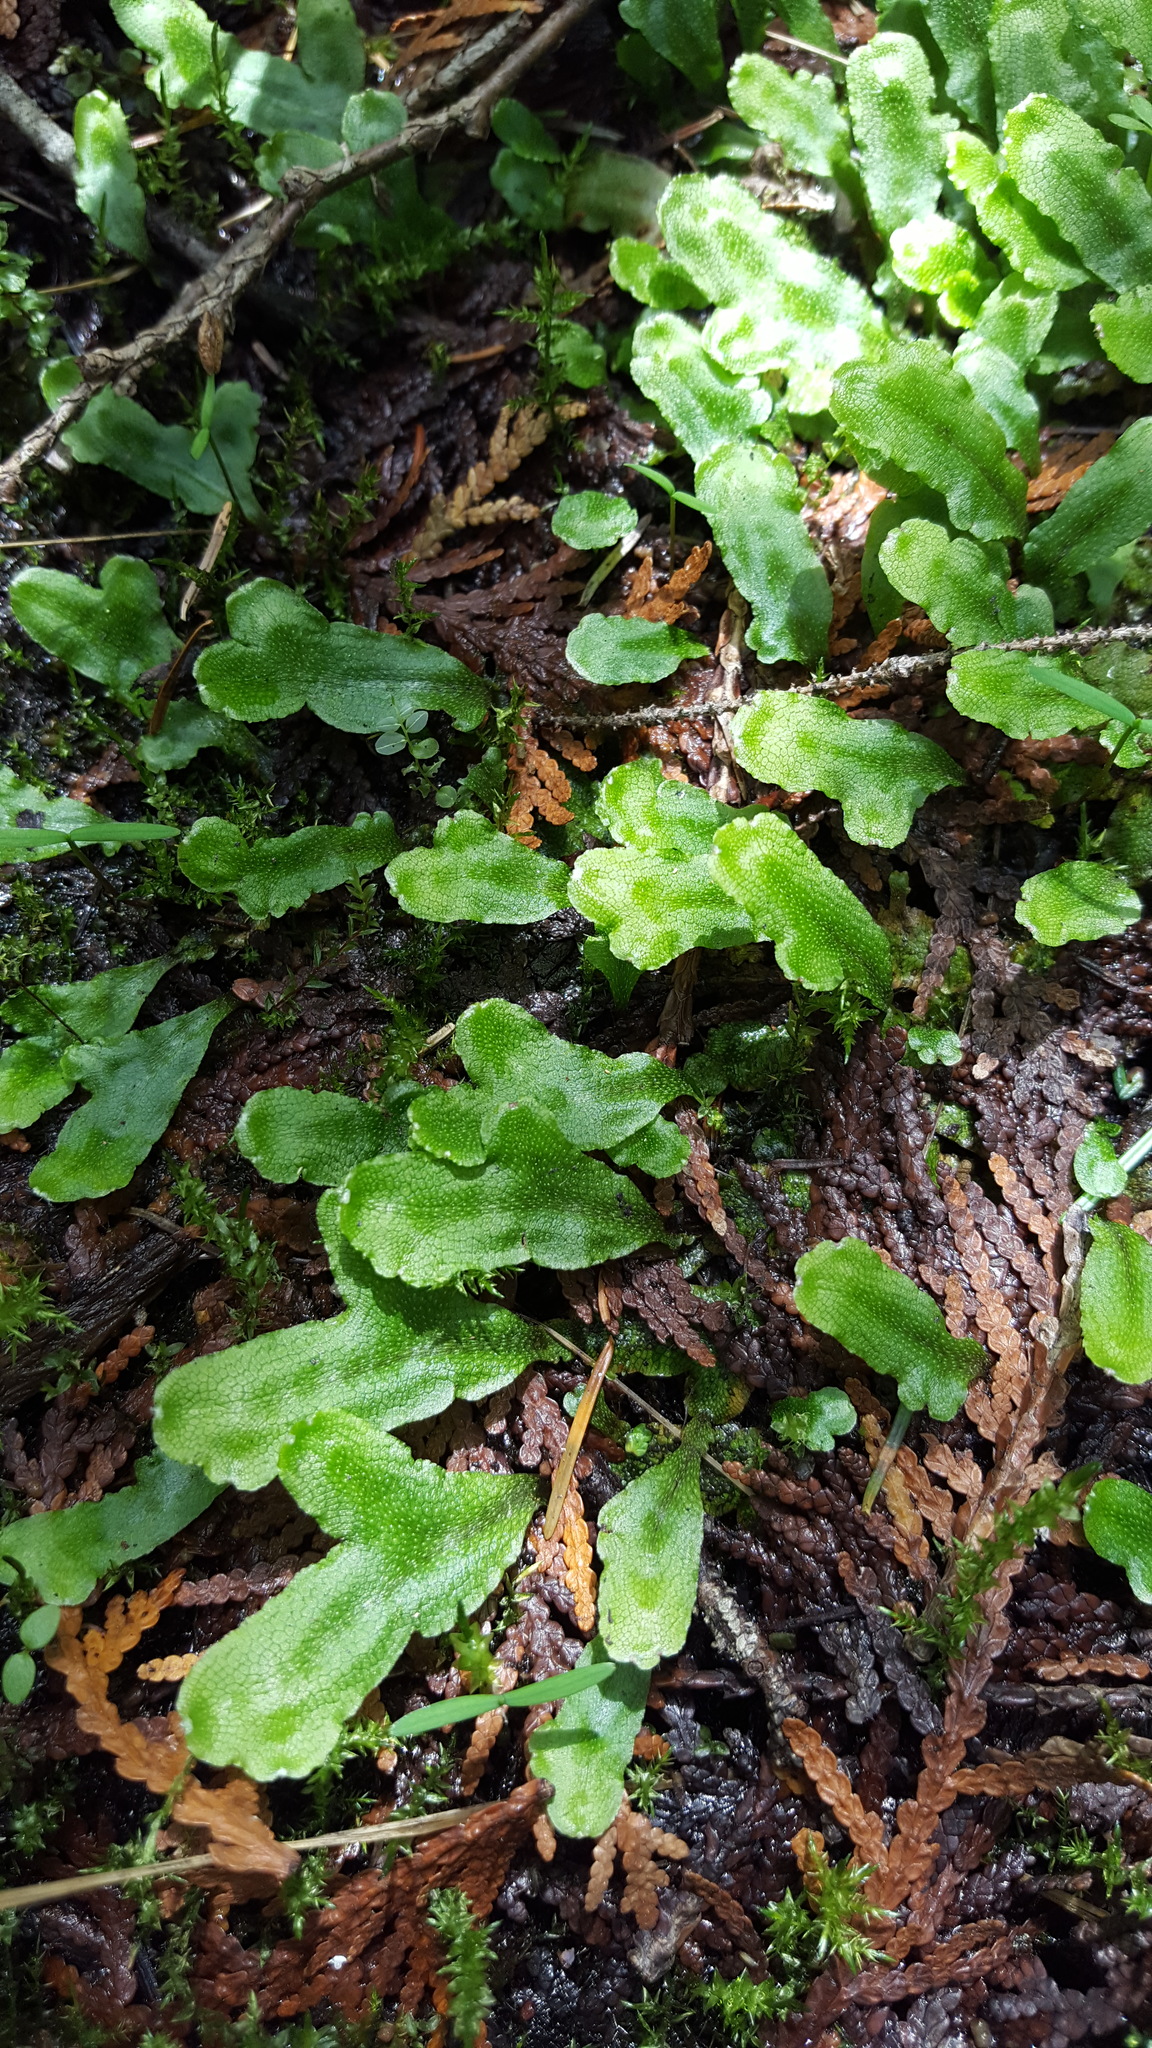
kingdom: Plantae
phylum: Marchantiophyta
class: Marchantiopsida
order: Marchantiales
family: Conocephalaceae
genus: Conocephalum
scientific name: Conocephalum salebrosum
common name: Cat-tongue liverwort
